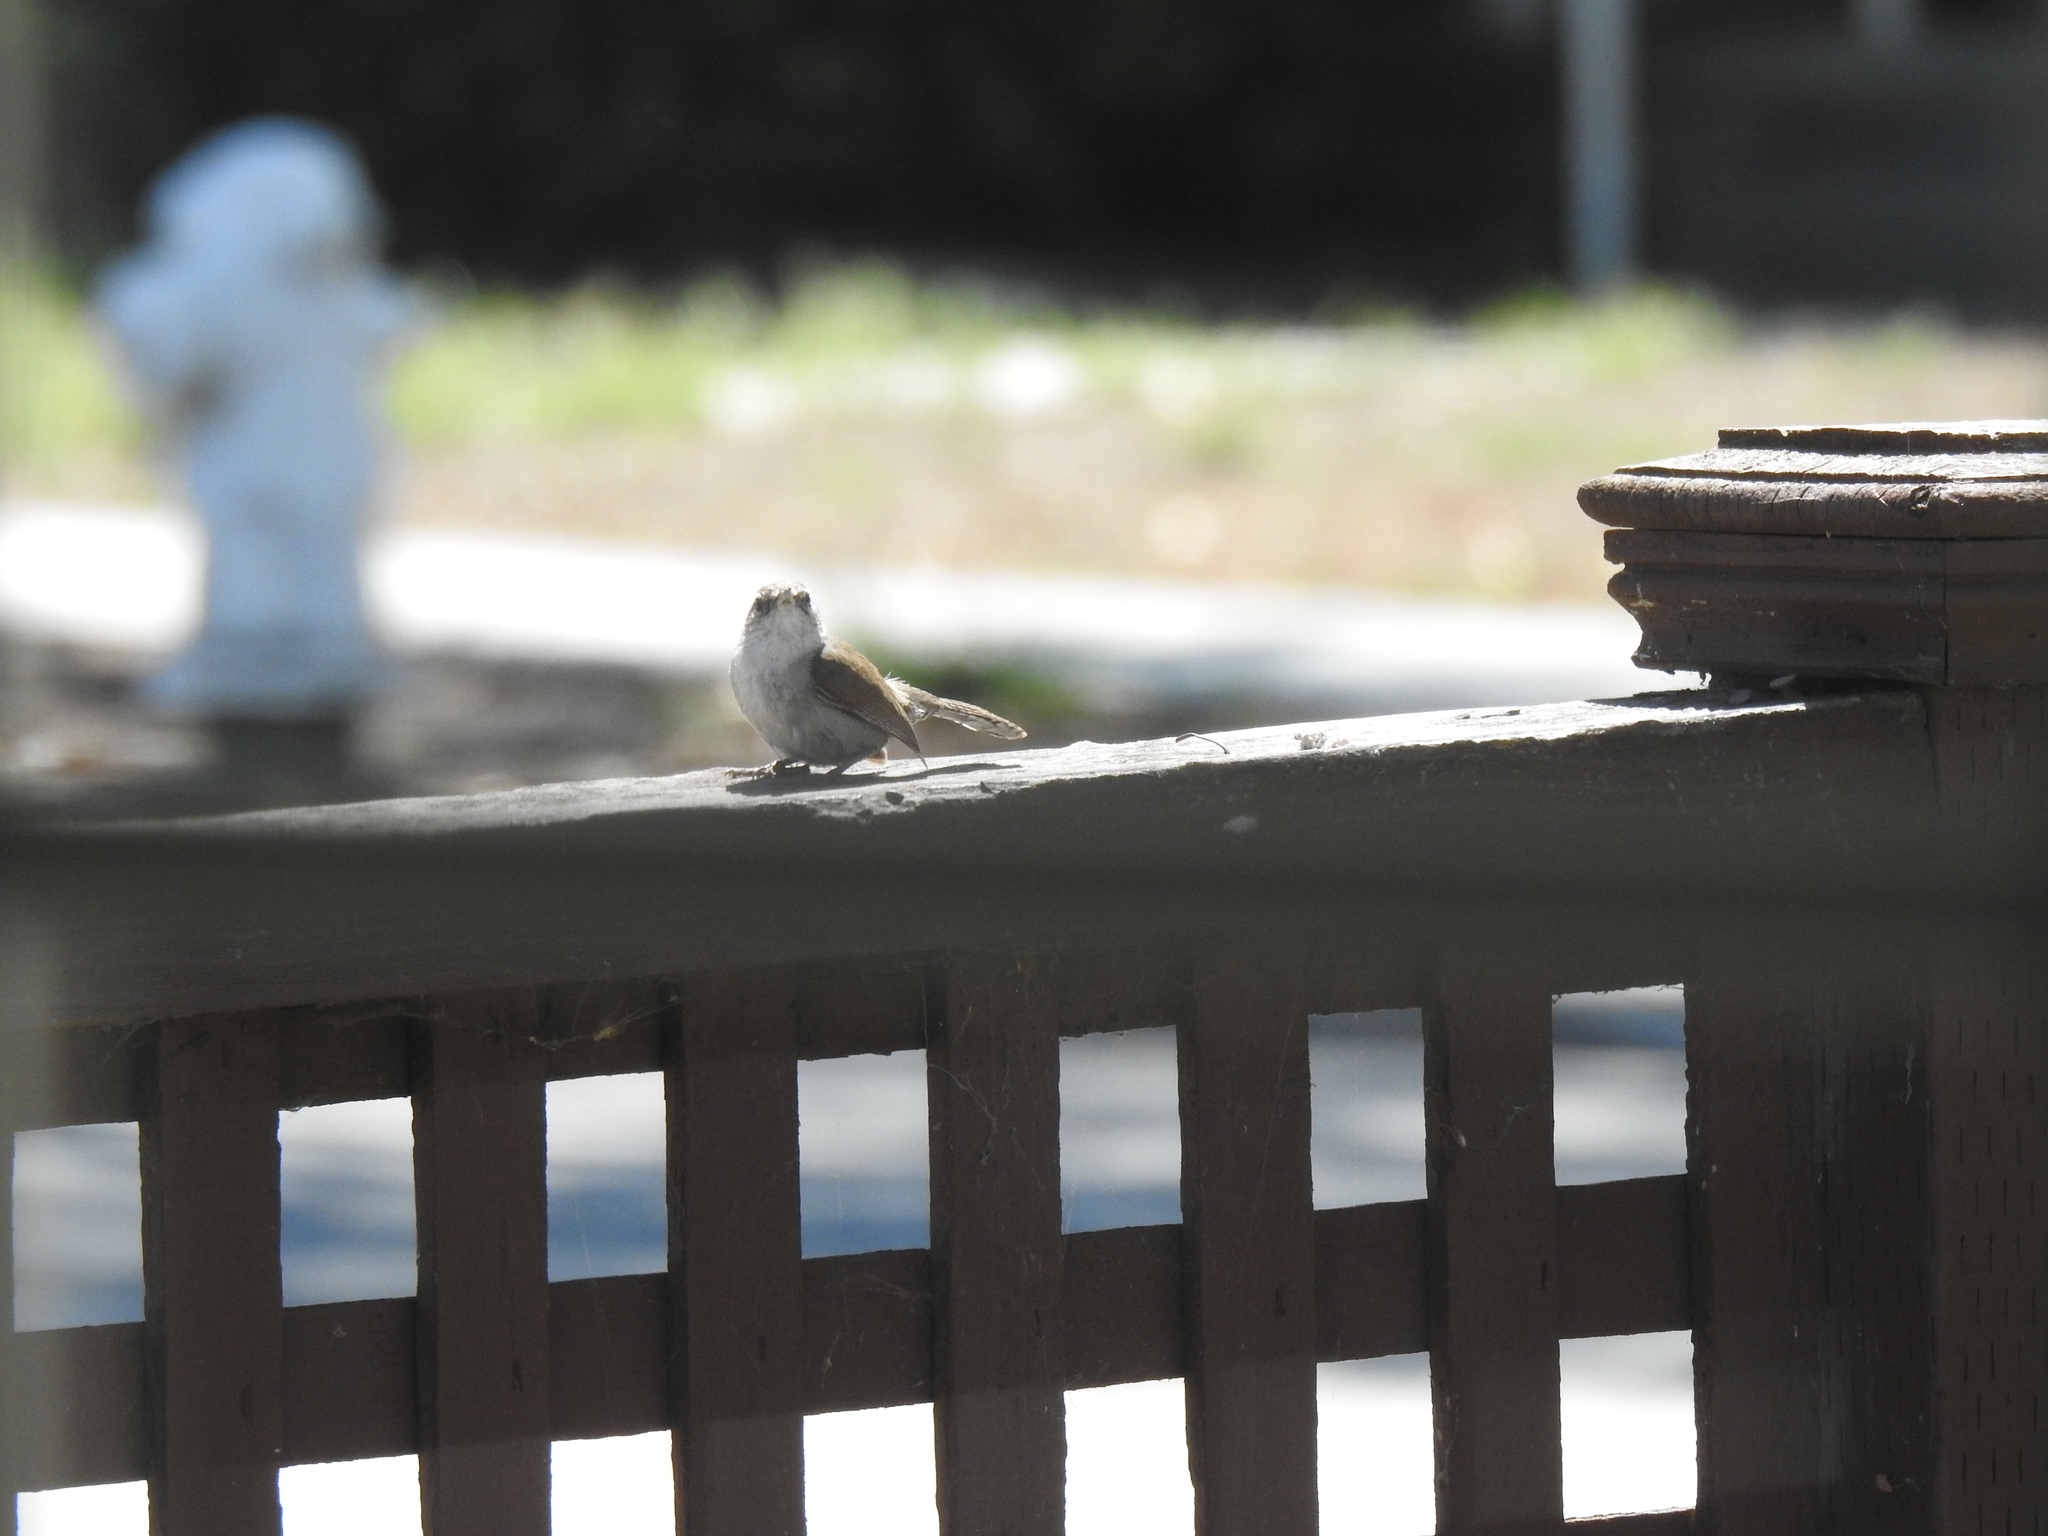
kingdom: Animalia
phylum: Chordata
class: Aves
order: Passeriformes
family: Troglodytidae
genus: Thryomanes
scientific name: Thryomanes bewickii
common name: Bewick's wren
